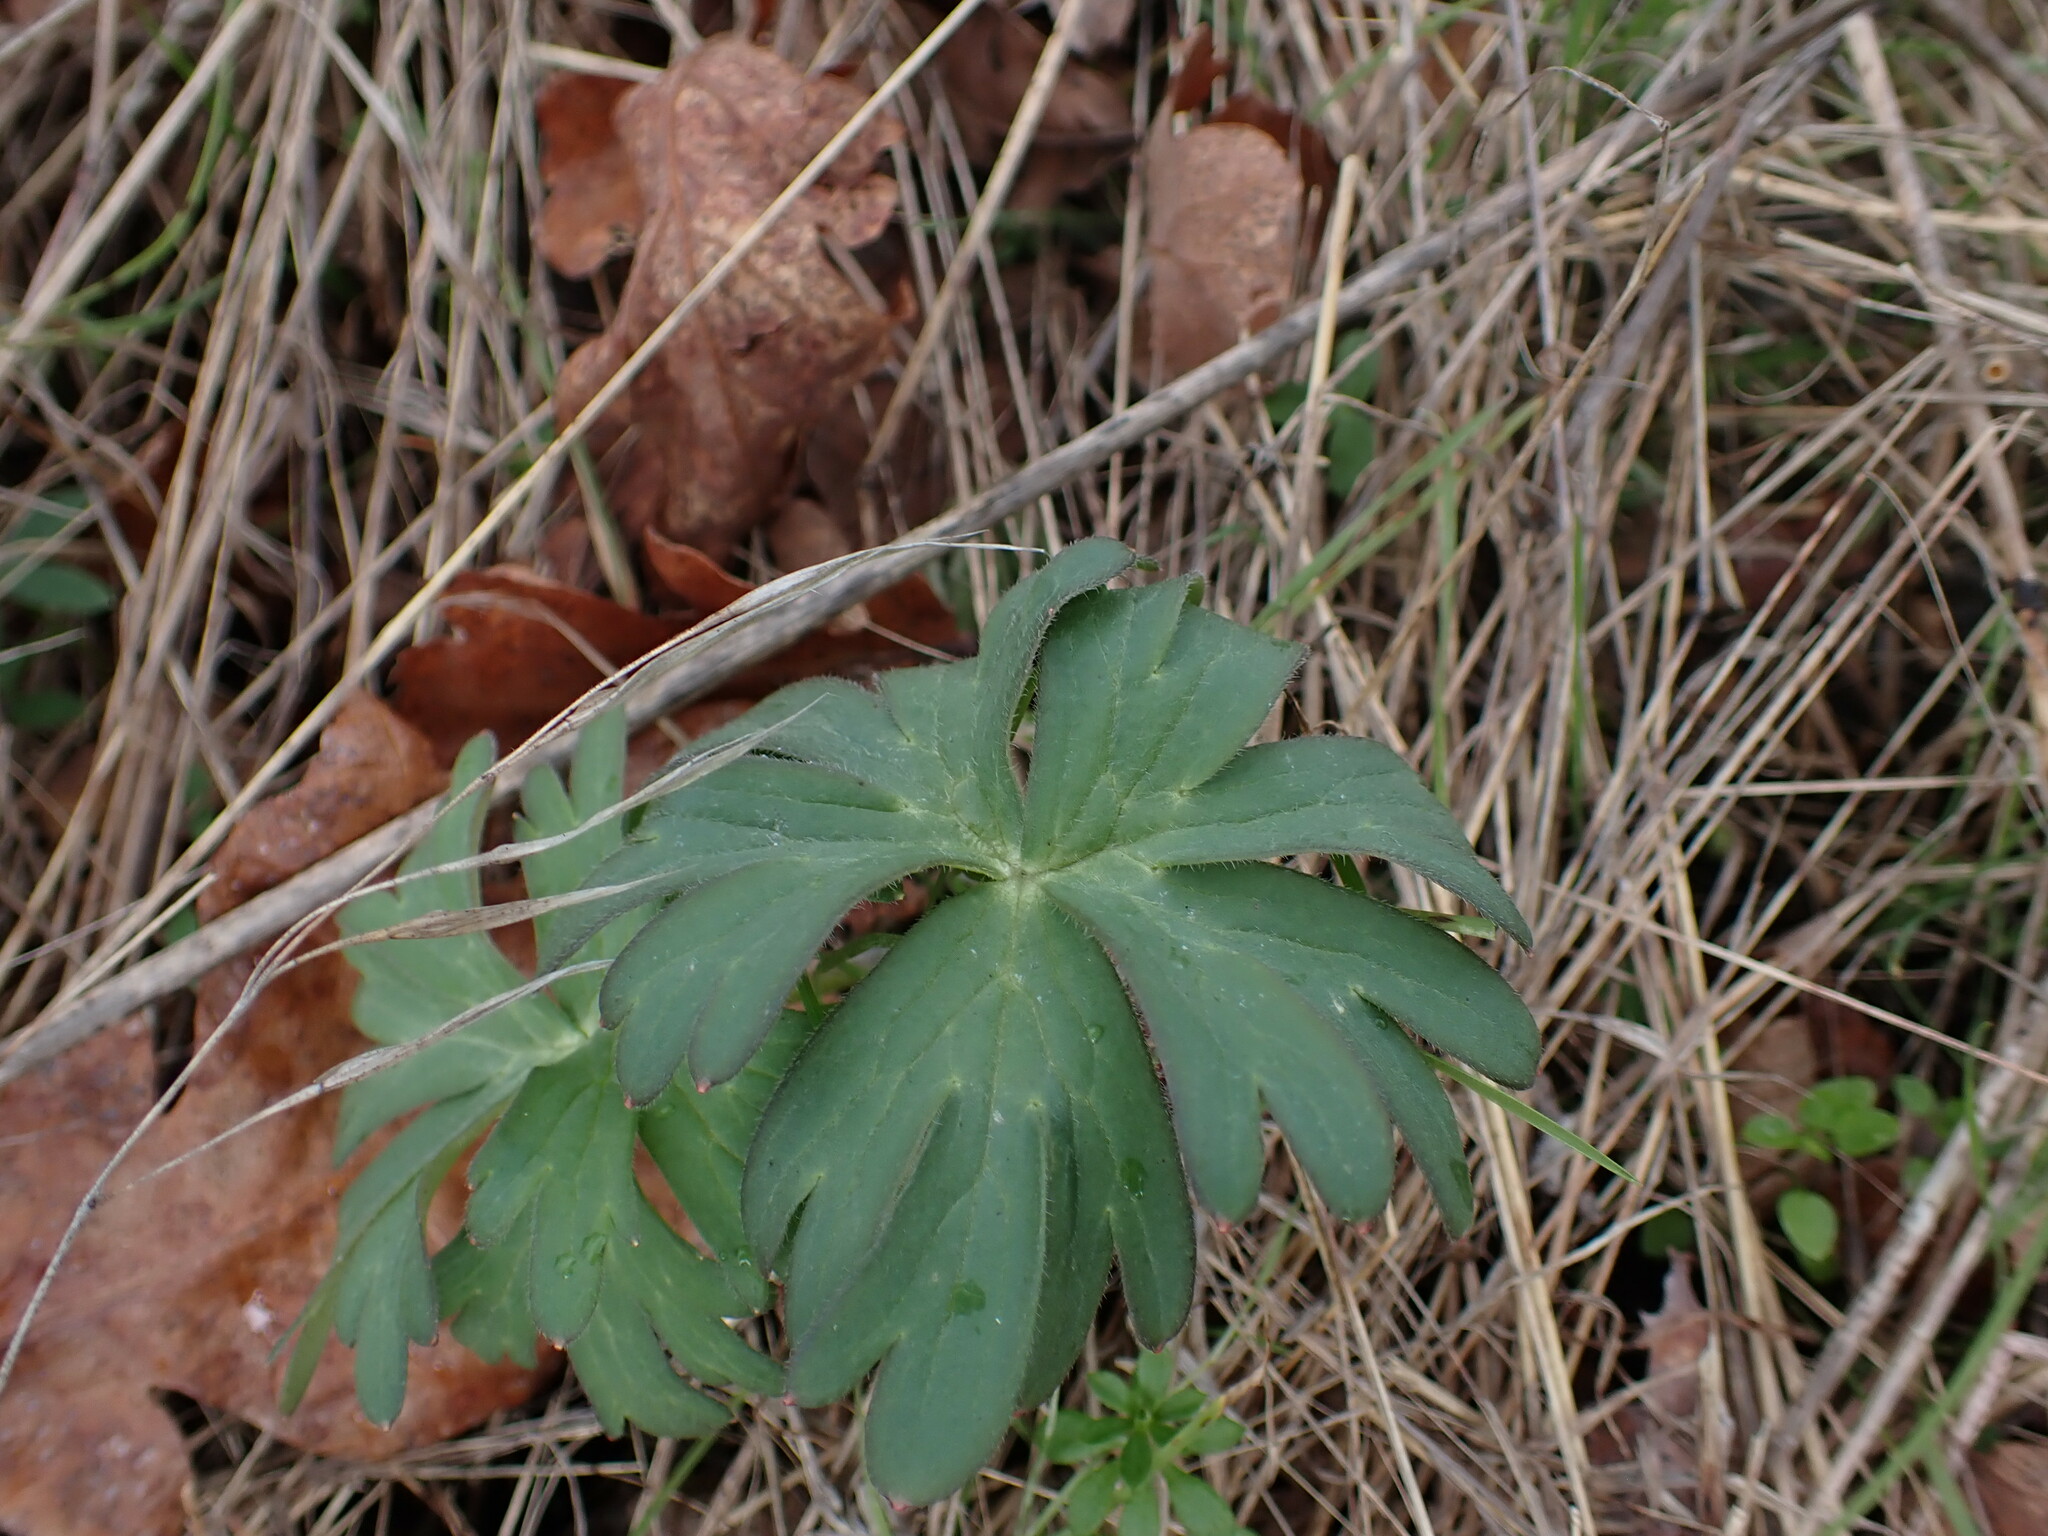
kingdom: Plantae
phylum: Tracheophyta
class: Magnoliopsida
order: Ranunculales
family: Ranunculaceae
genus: Delphinium
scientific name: Delphinium menziesii
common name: Menzies's larkspur
